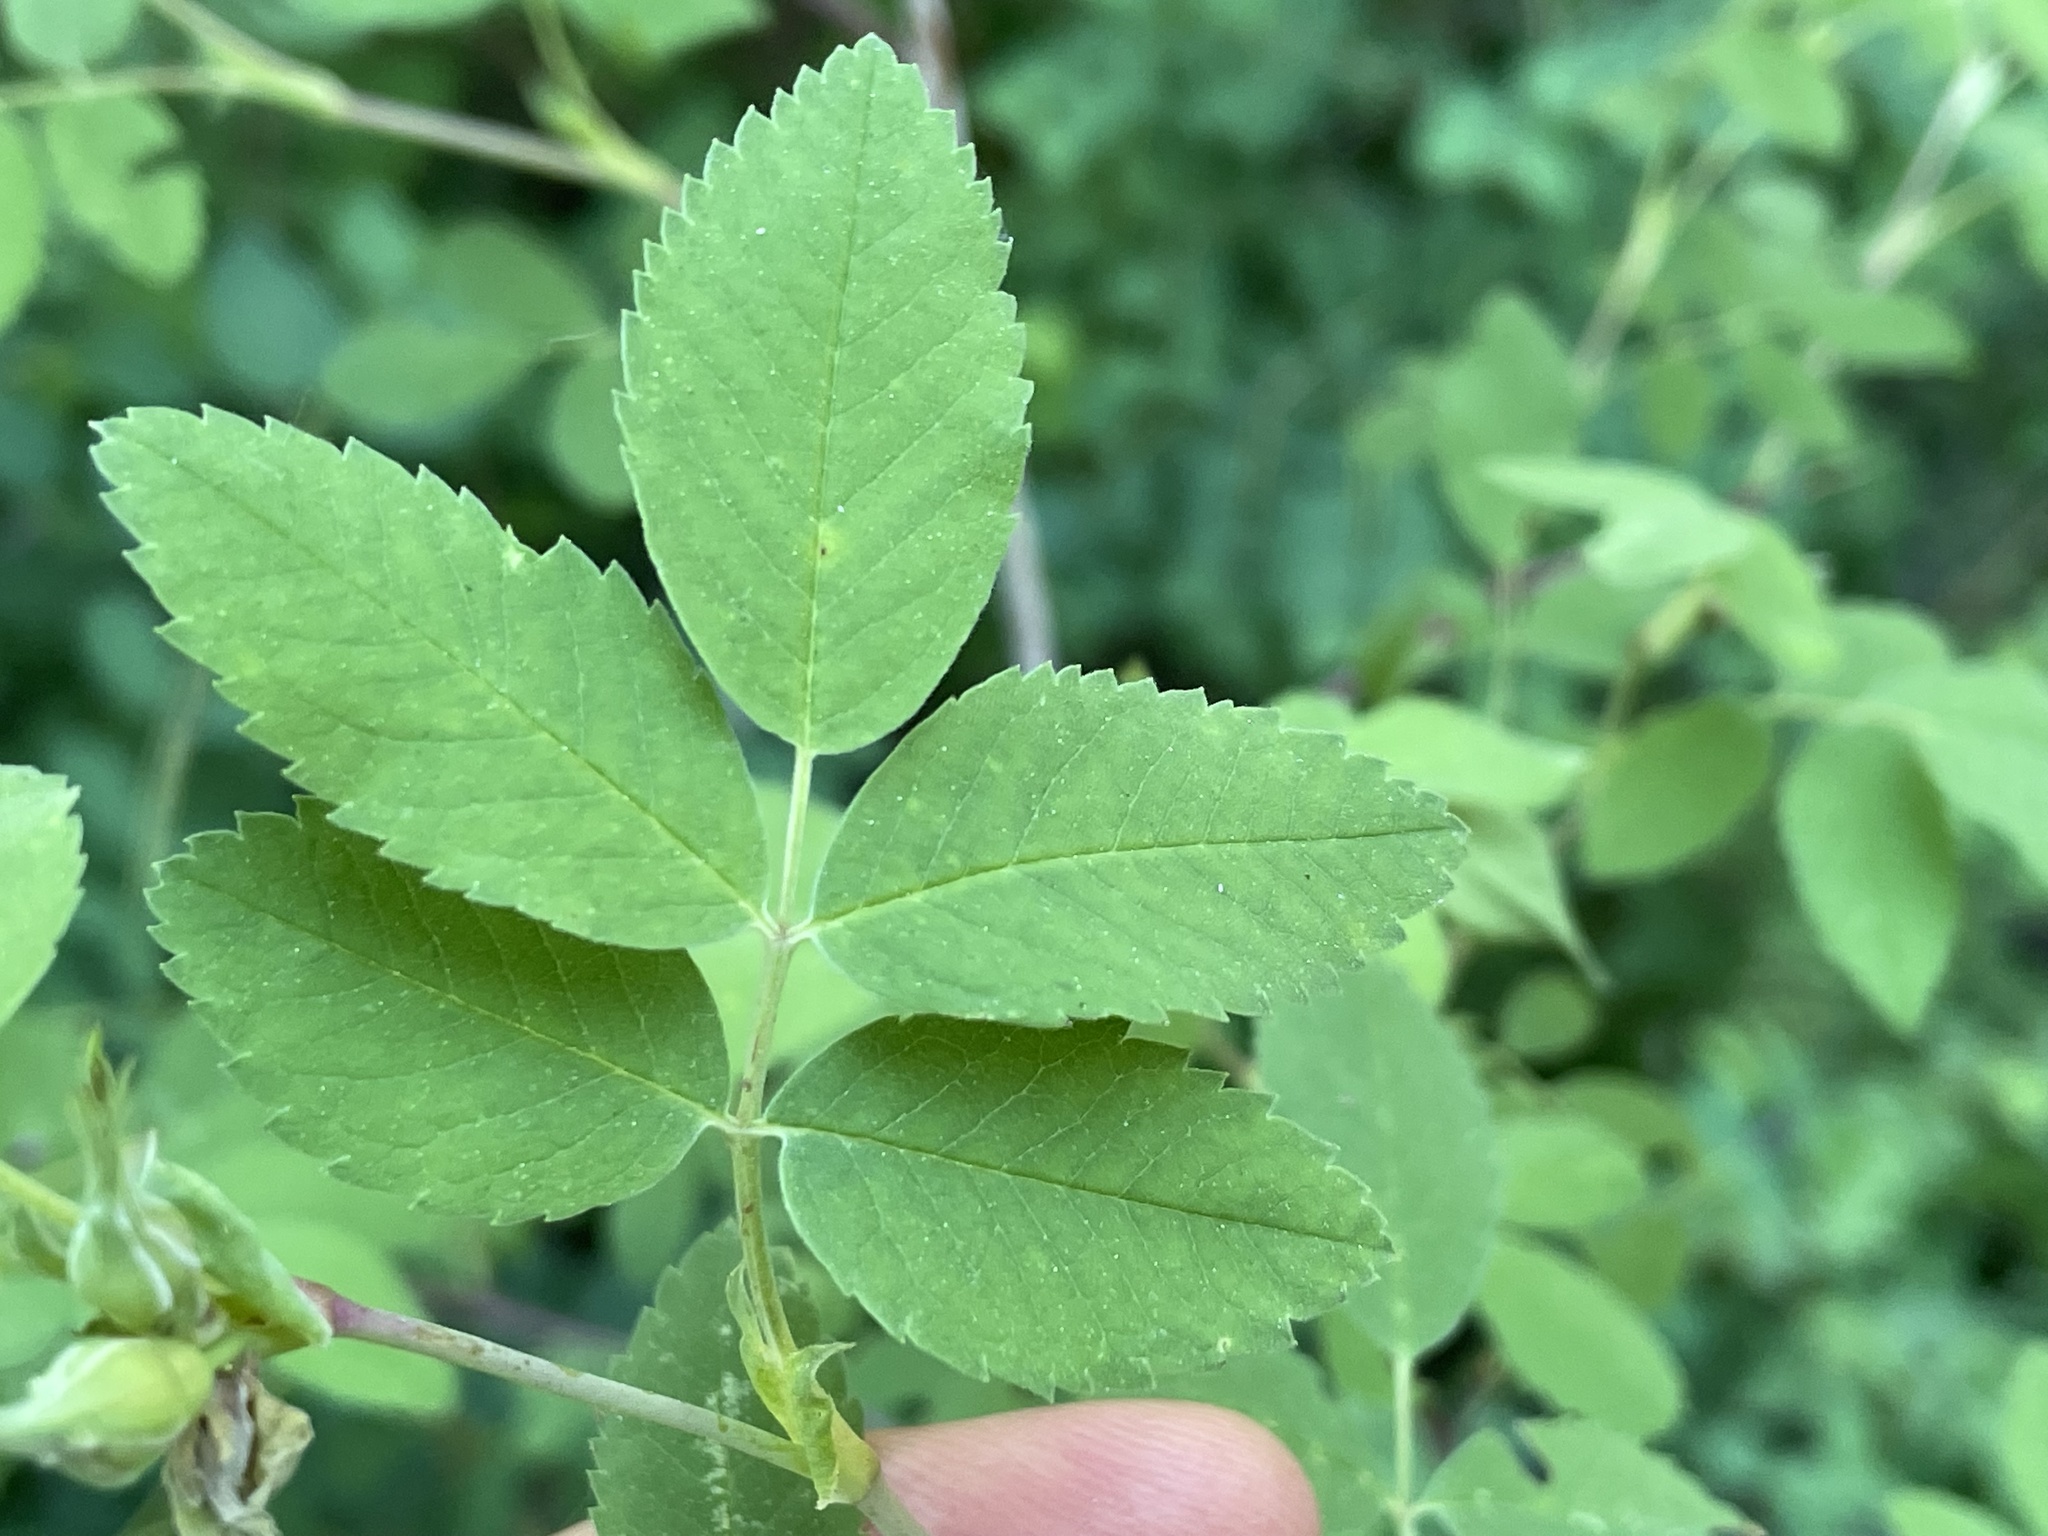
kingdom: Plantae
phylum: Tracheophyta
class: Magnoliopsida
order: Rosales
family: Rosaceae
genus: Rosa
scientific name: Rosa gymnocarpa
